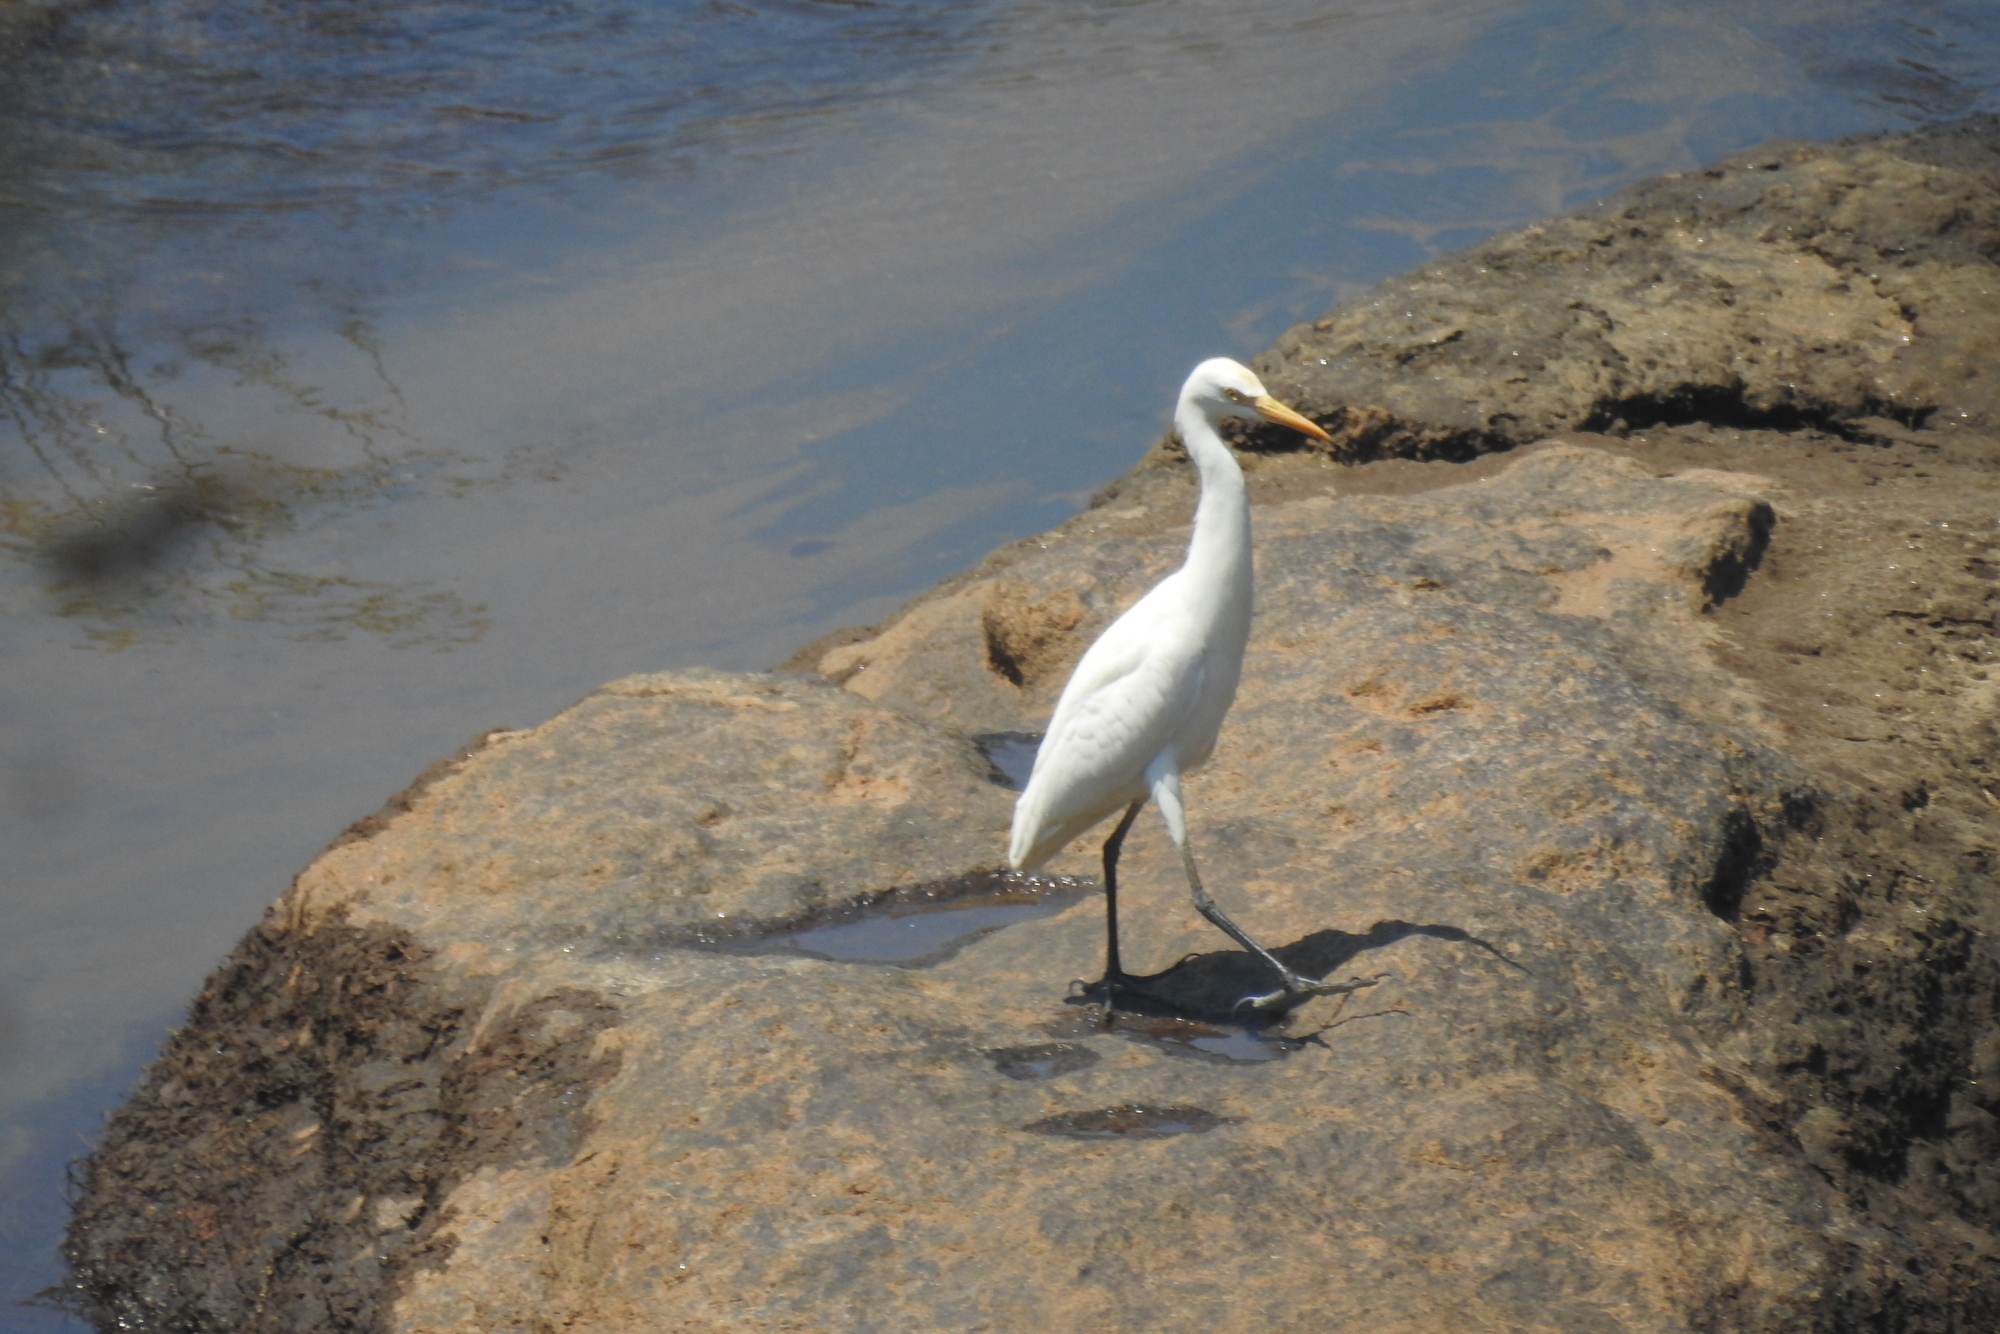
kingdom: Animalia
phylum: Chordata
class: Aves
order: Pelecaniformes
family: Ardeidae
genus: Bubulcus
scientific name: Bubulcus coromandus
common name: Eastern cattle egret
